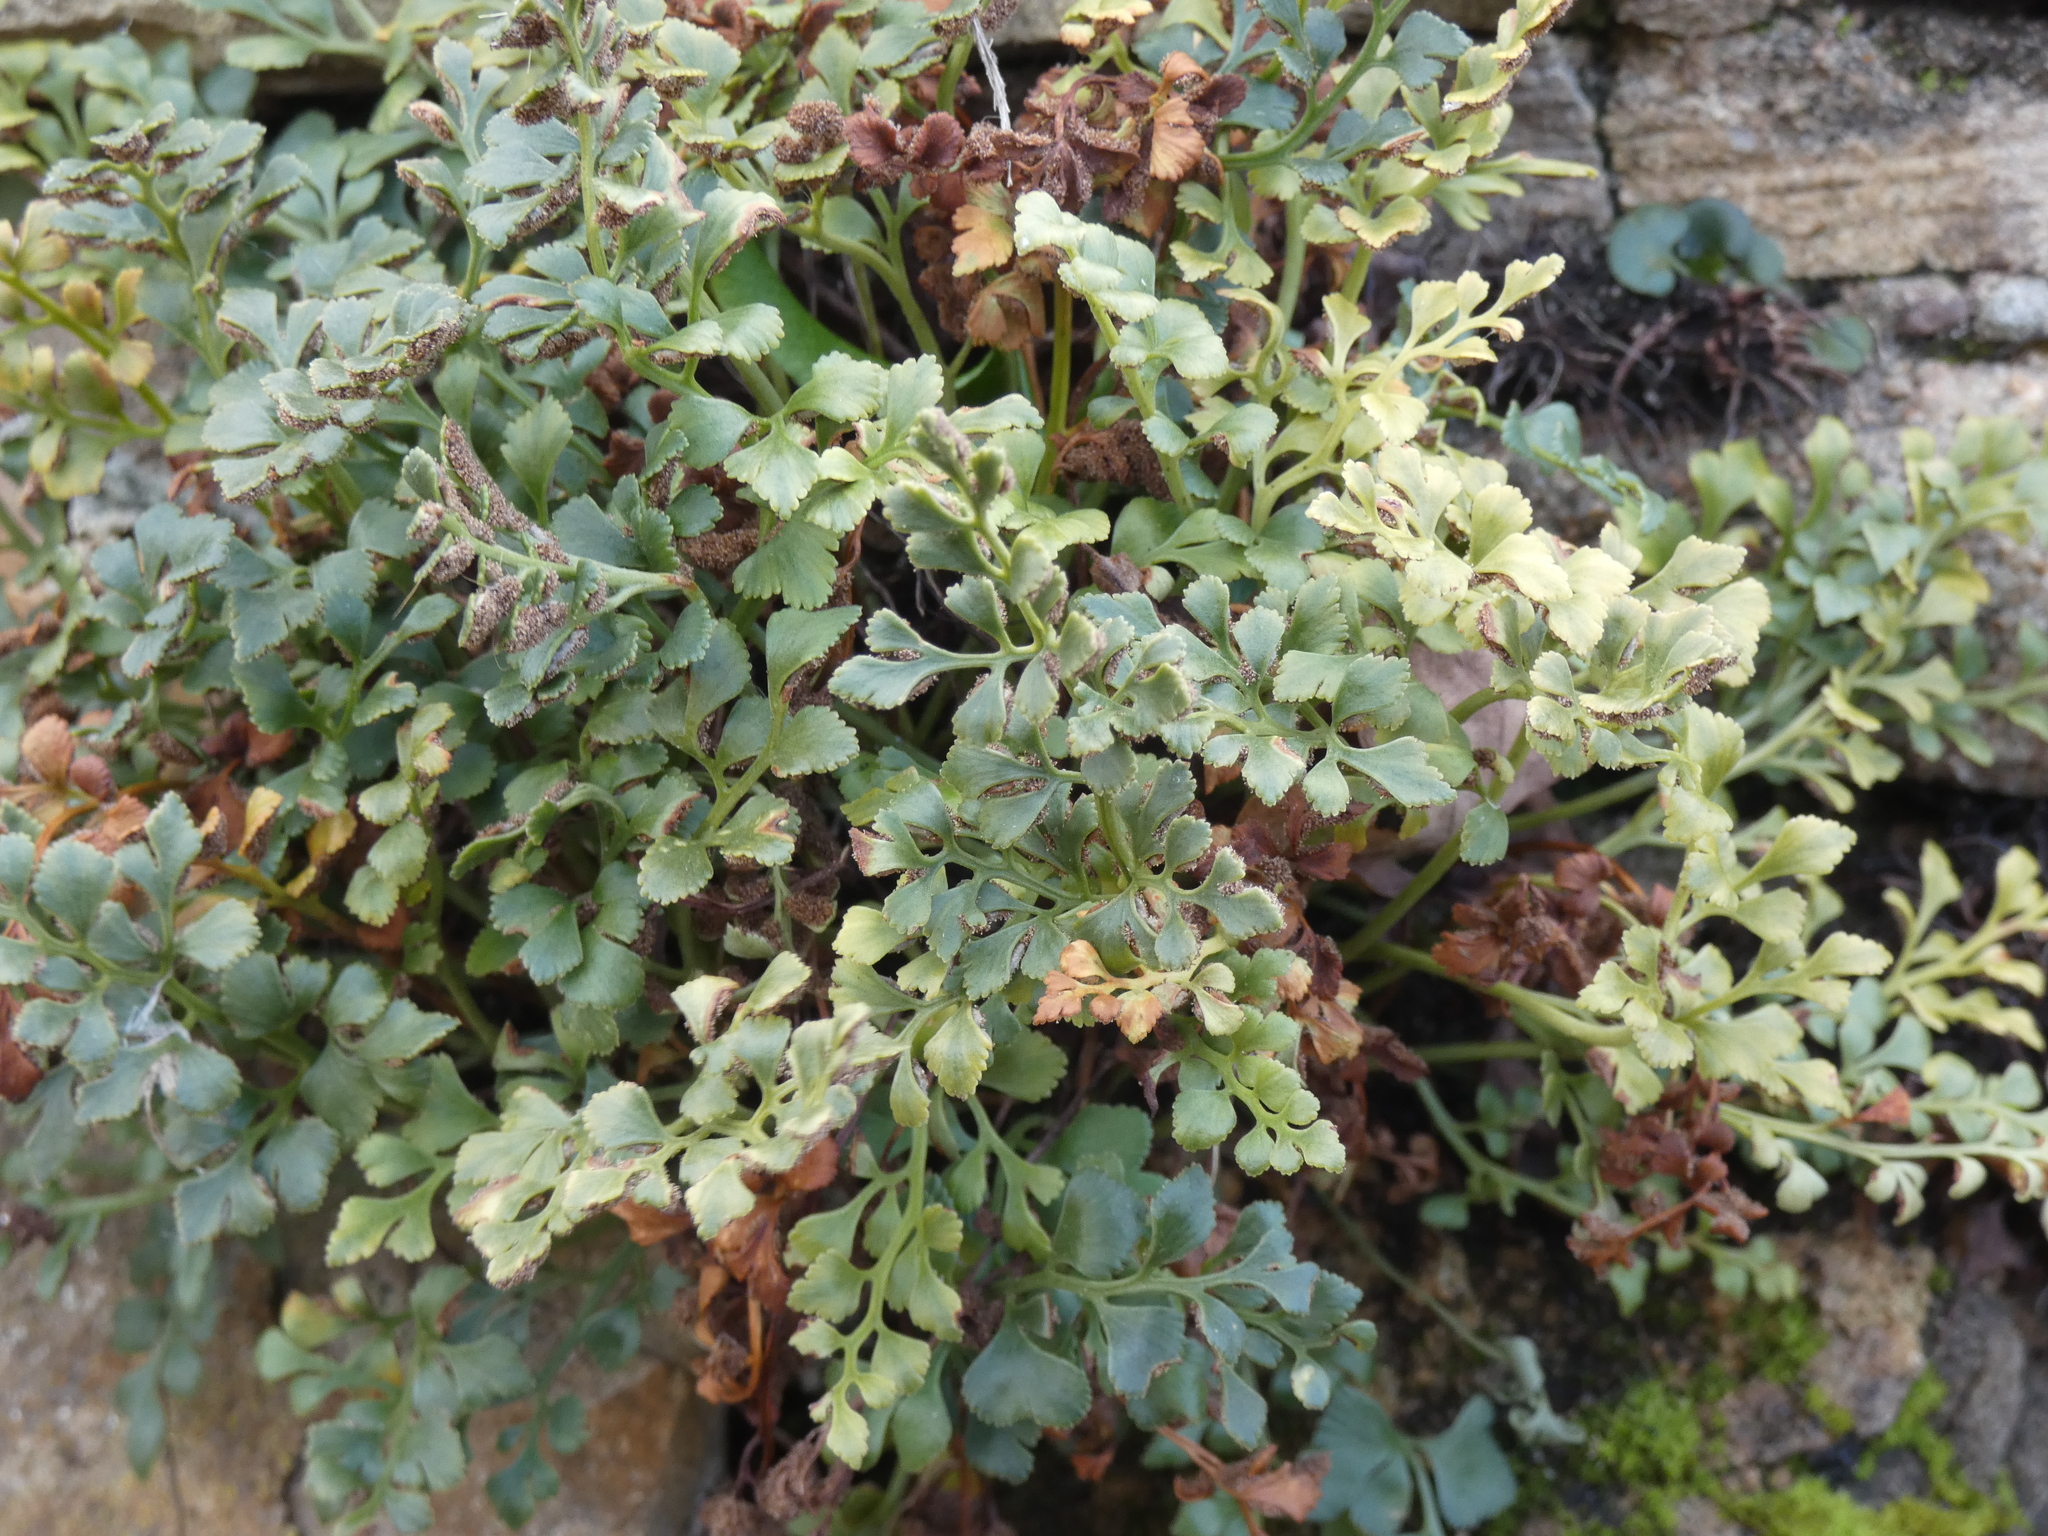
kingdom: Plantae
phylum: Tracheophyta
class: Polypodiopsida
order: Polypodiales
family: Aspleniaceae
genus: Asplenium
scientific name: Asplenium ruta-muraria
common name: Wall-rue
